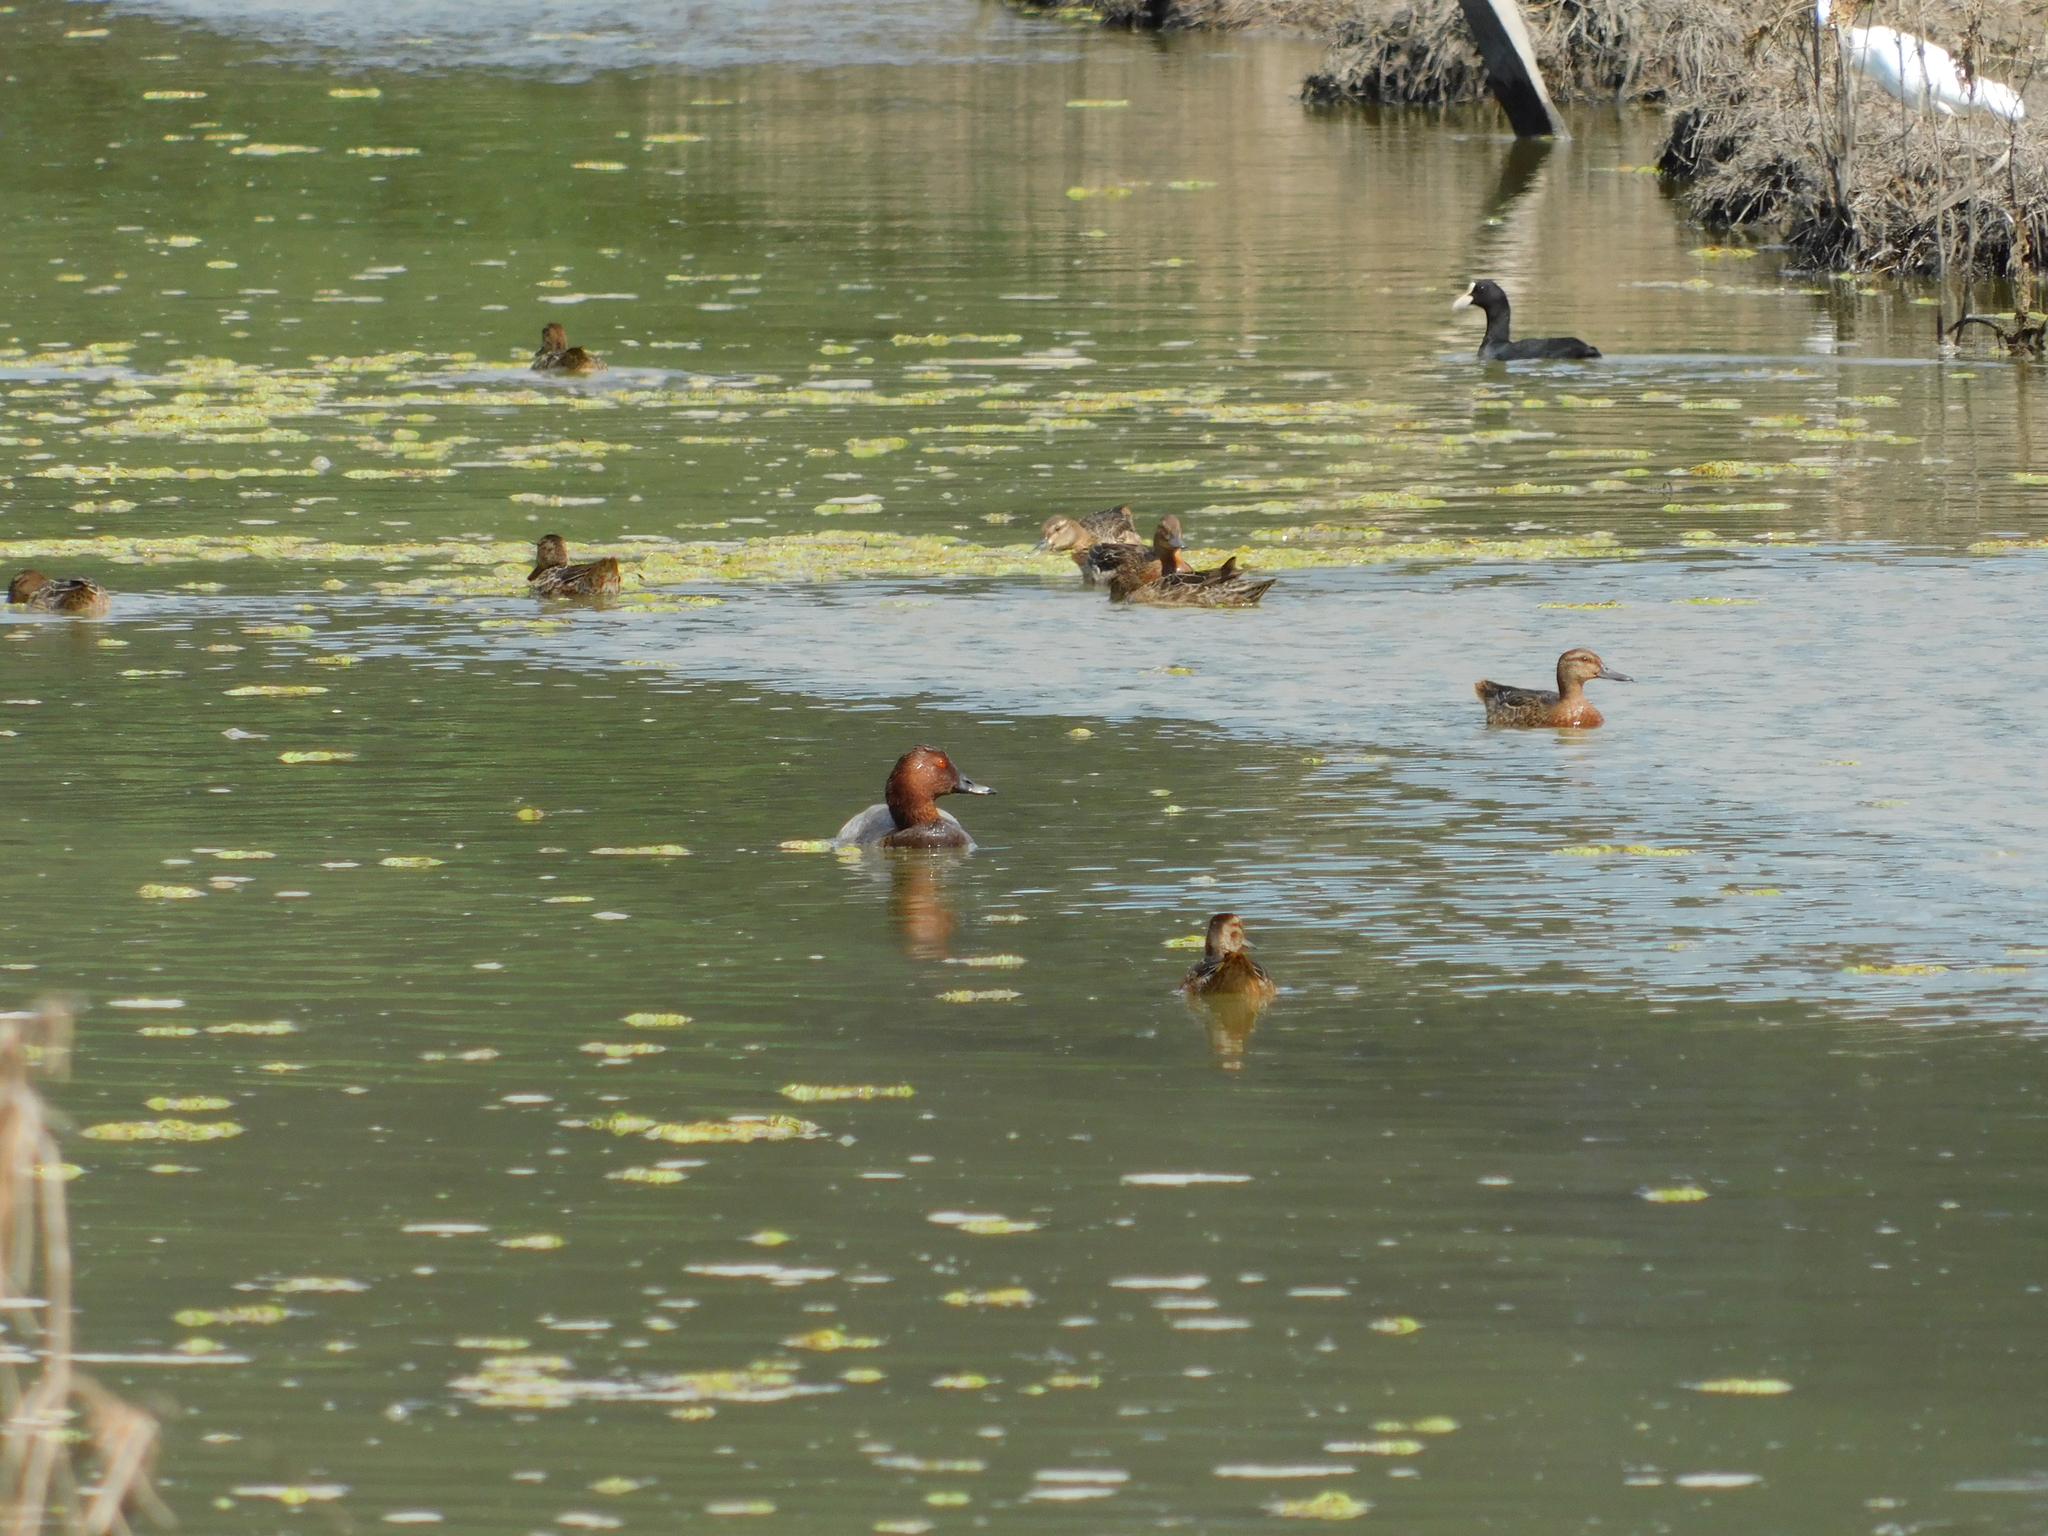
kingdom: Animalia
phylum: Chordata
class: Aves
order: Anseriformes
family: Anatidae
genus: Spatula
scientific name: Spatula querquedula
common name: Garganey
